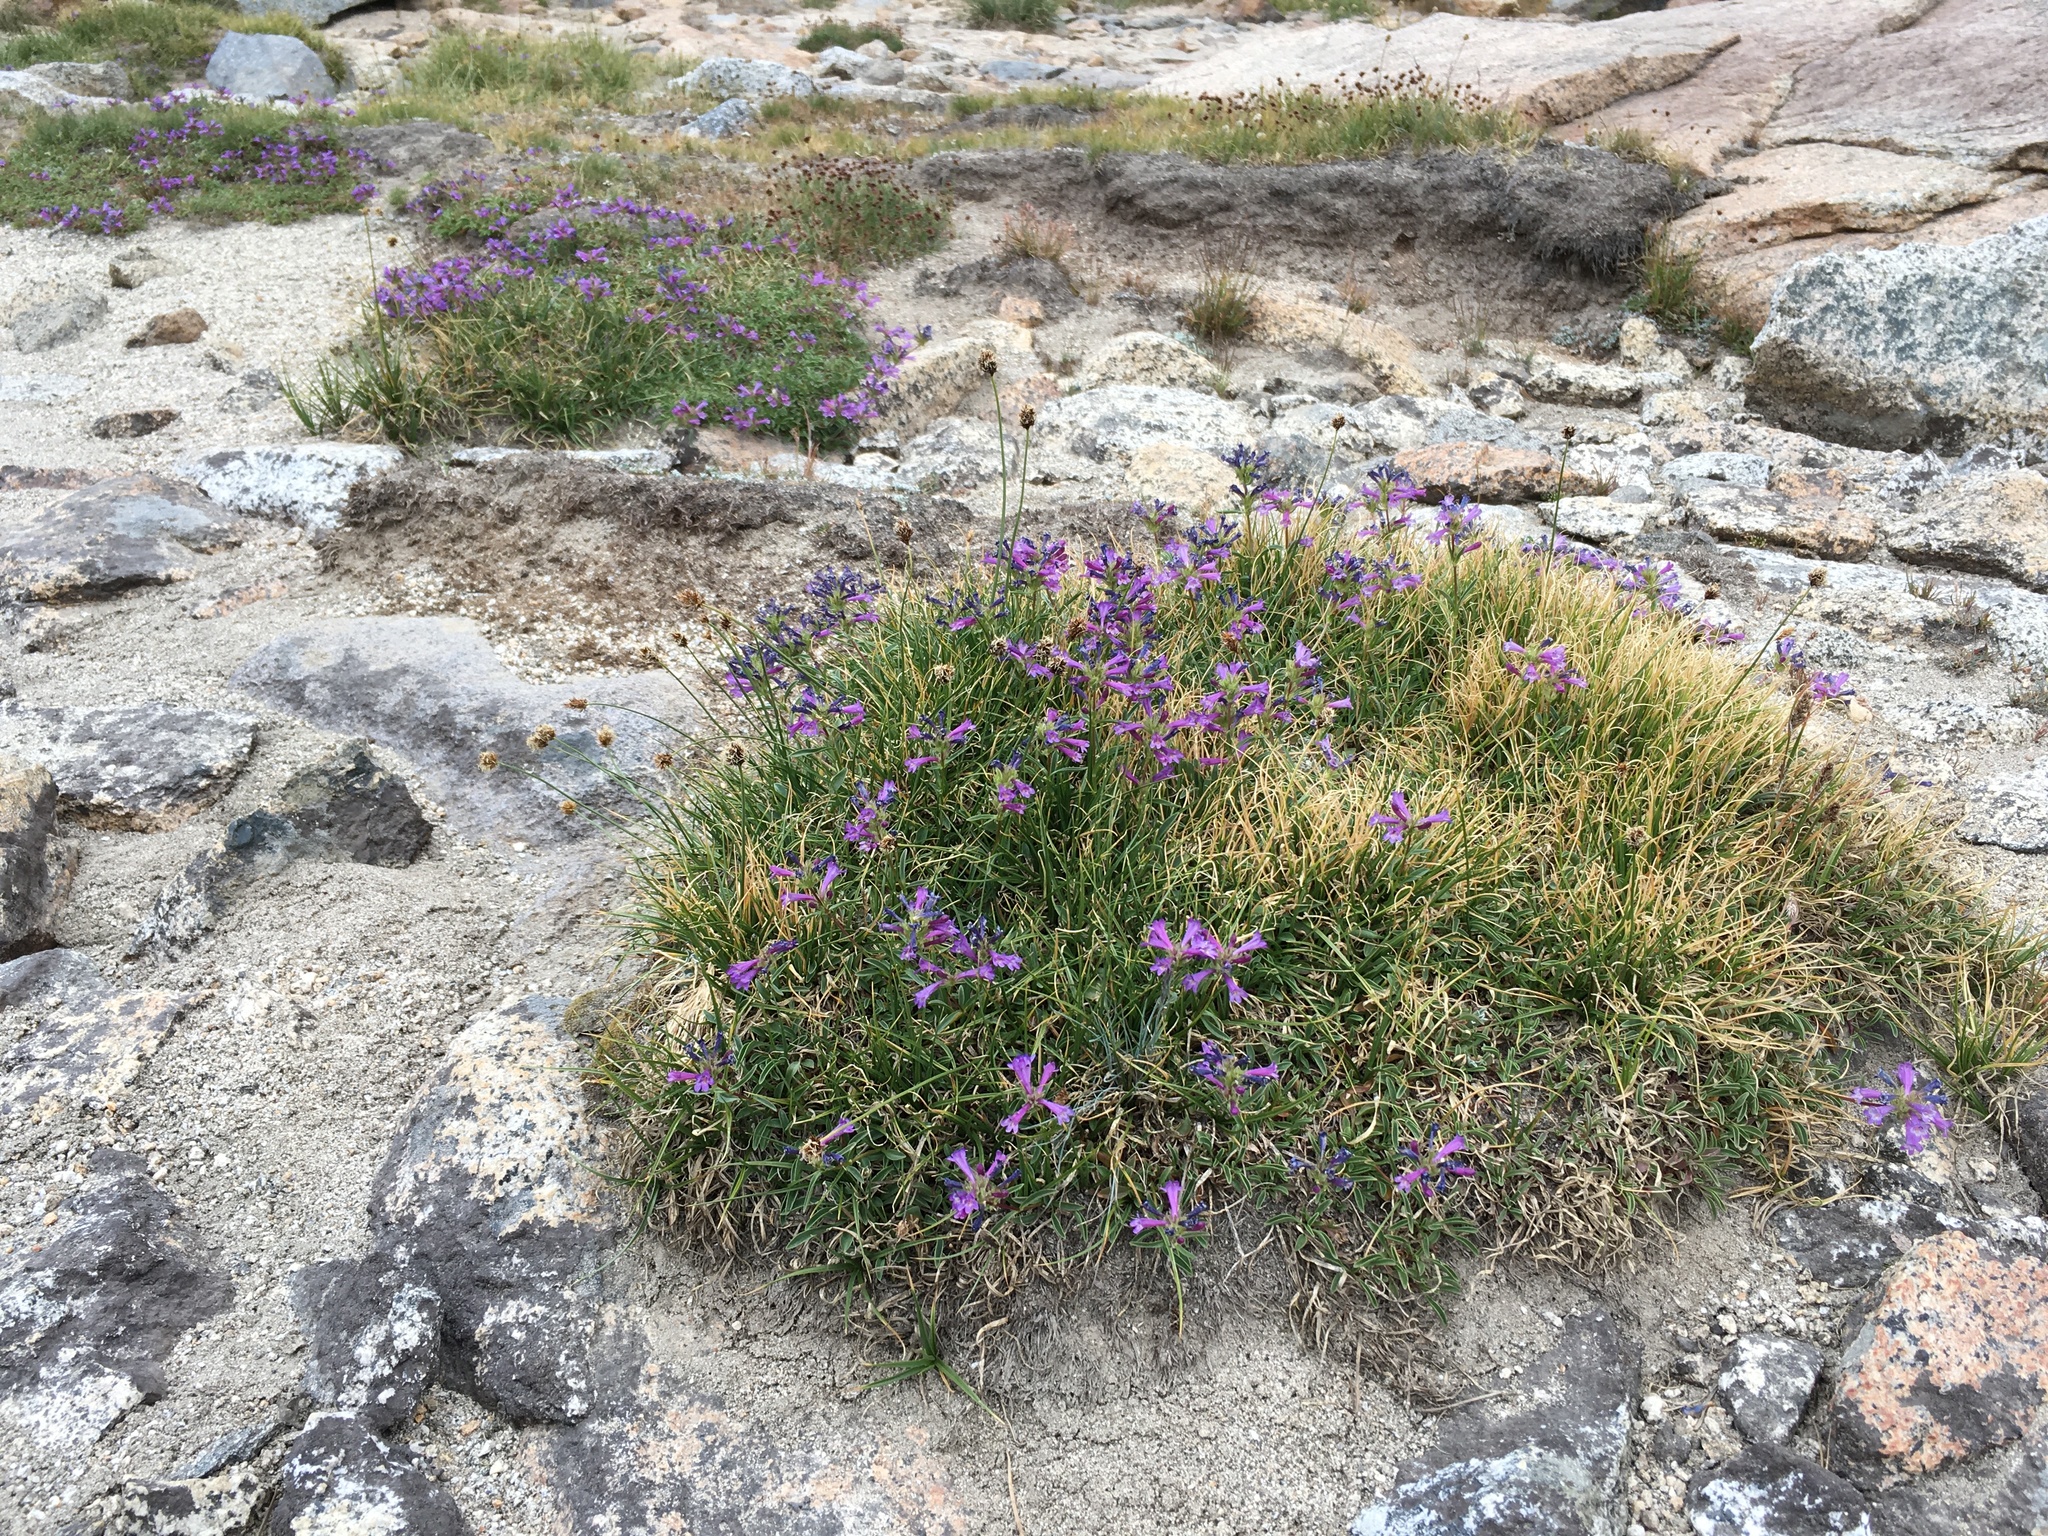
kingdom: Plantae
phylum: Tracheophyta
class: Magnoliopsida
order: Lamiales
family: Plantaginaceae
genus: Penstemon
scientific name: Penstemon heterodoxus
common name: Sierran penstemon
